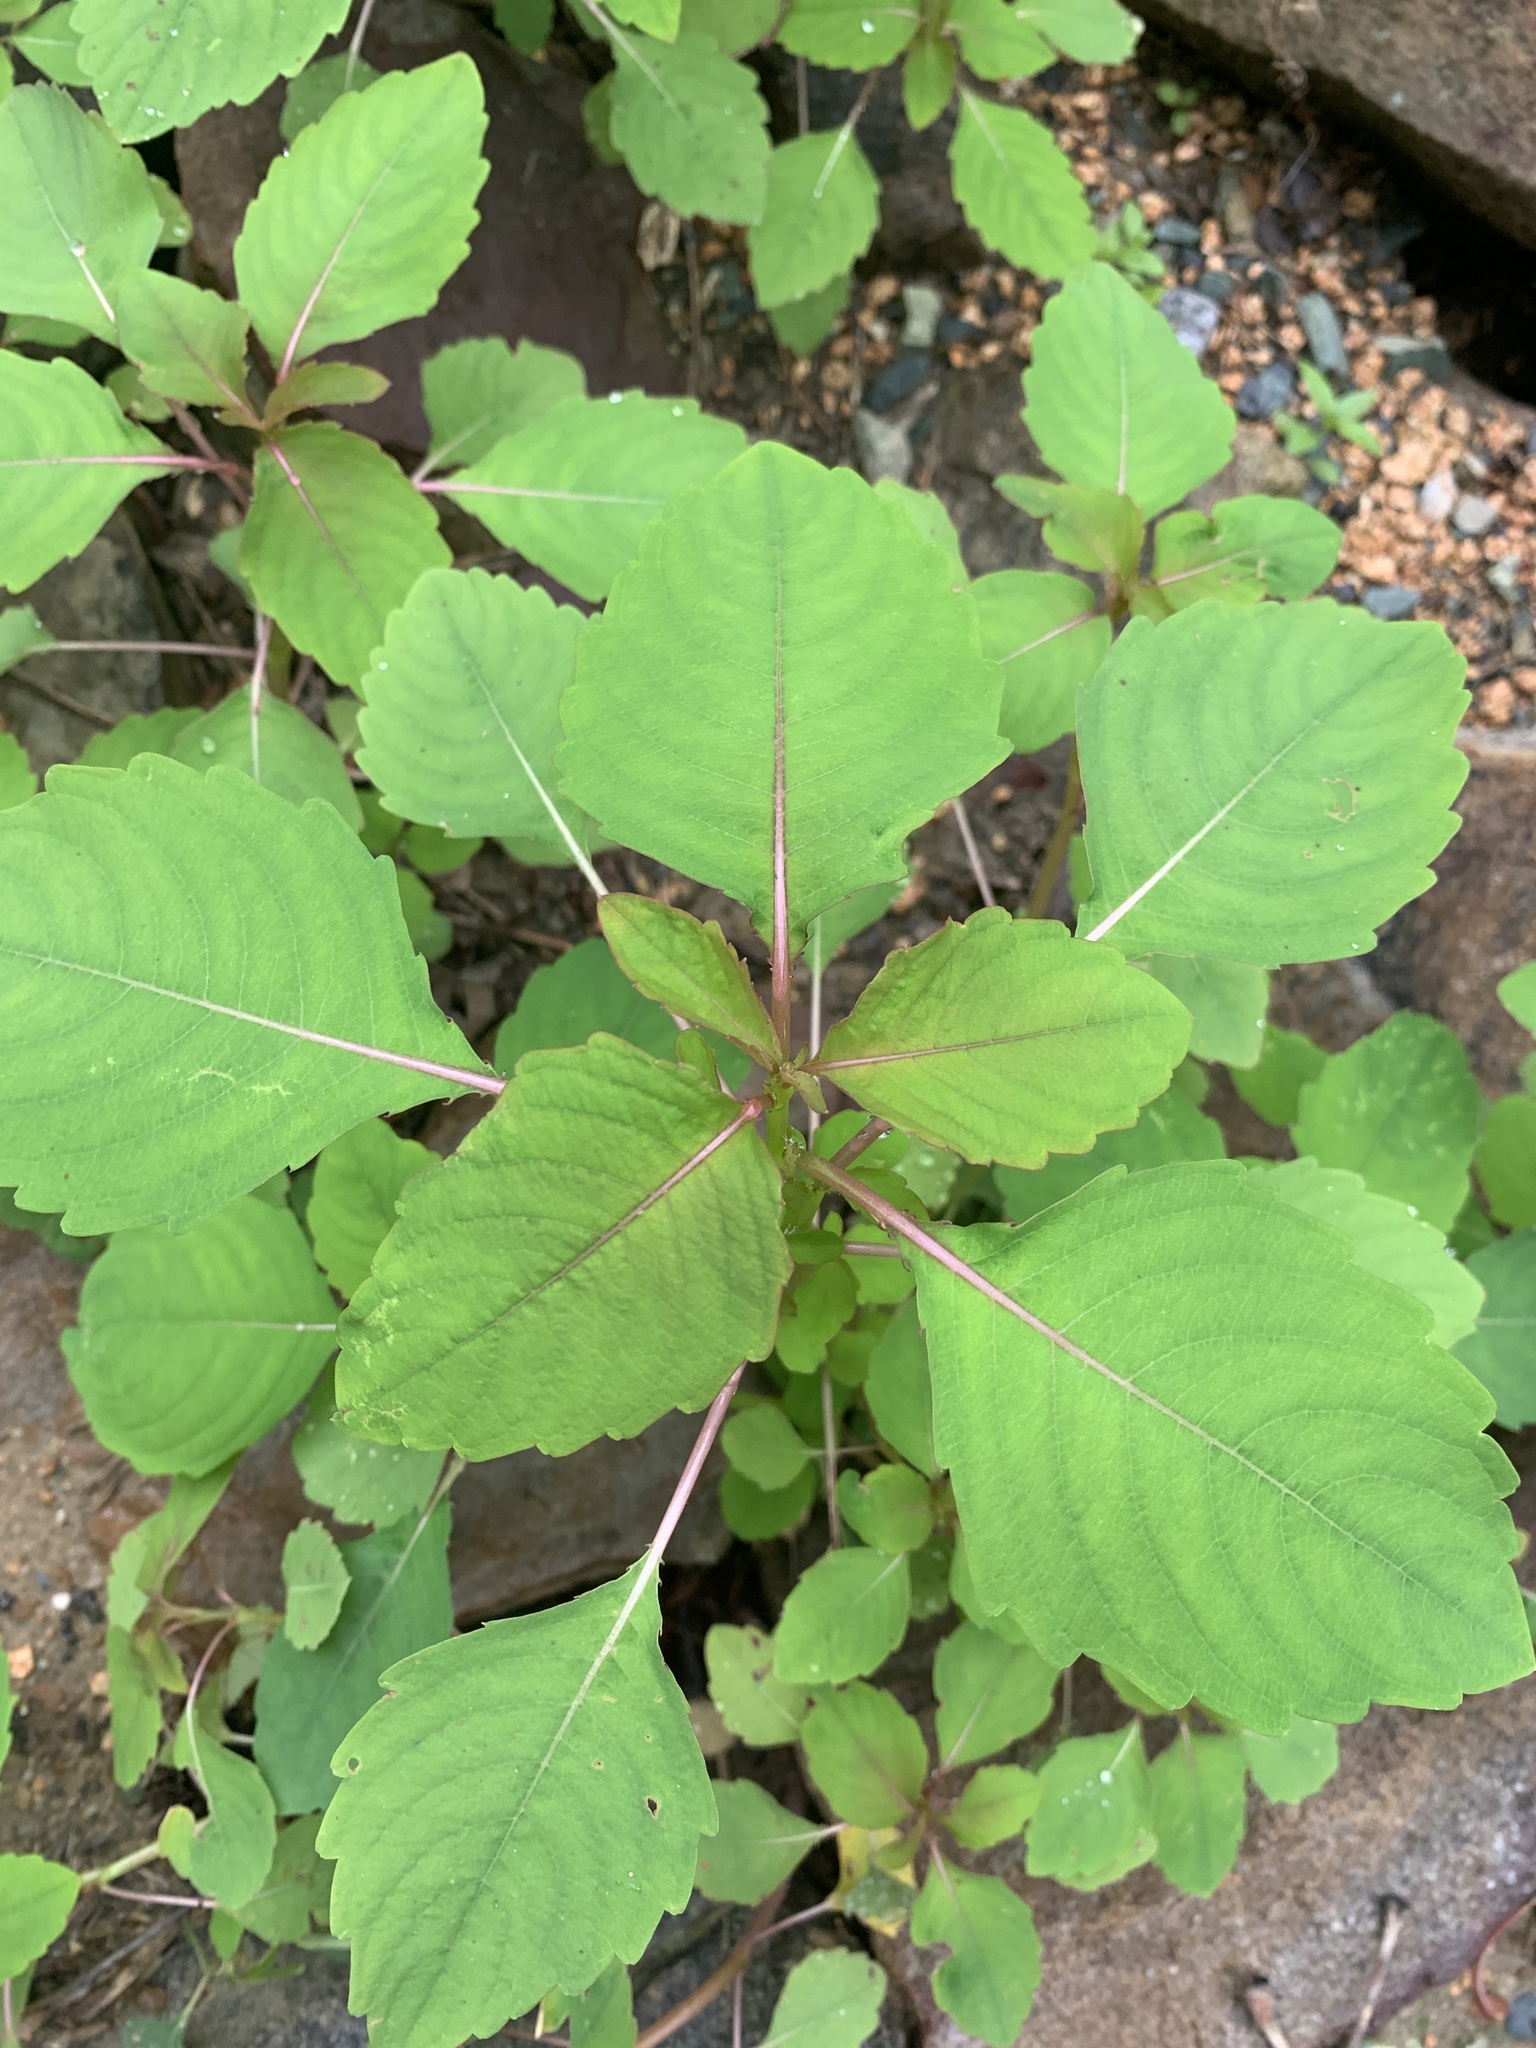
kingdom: Plantae
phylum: Tracheophyta
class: Magnoliopsida
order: Ericales
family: Balsaminaceae
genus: Impatiens
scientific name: Impatiens capensis
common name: Orange balsam
